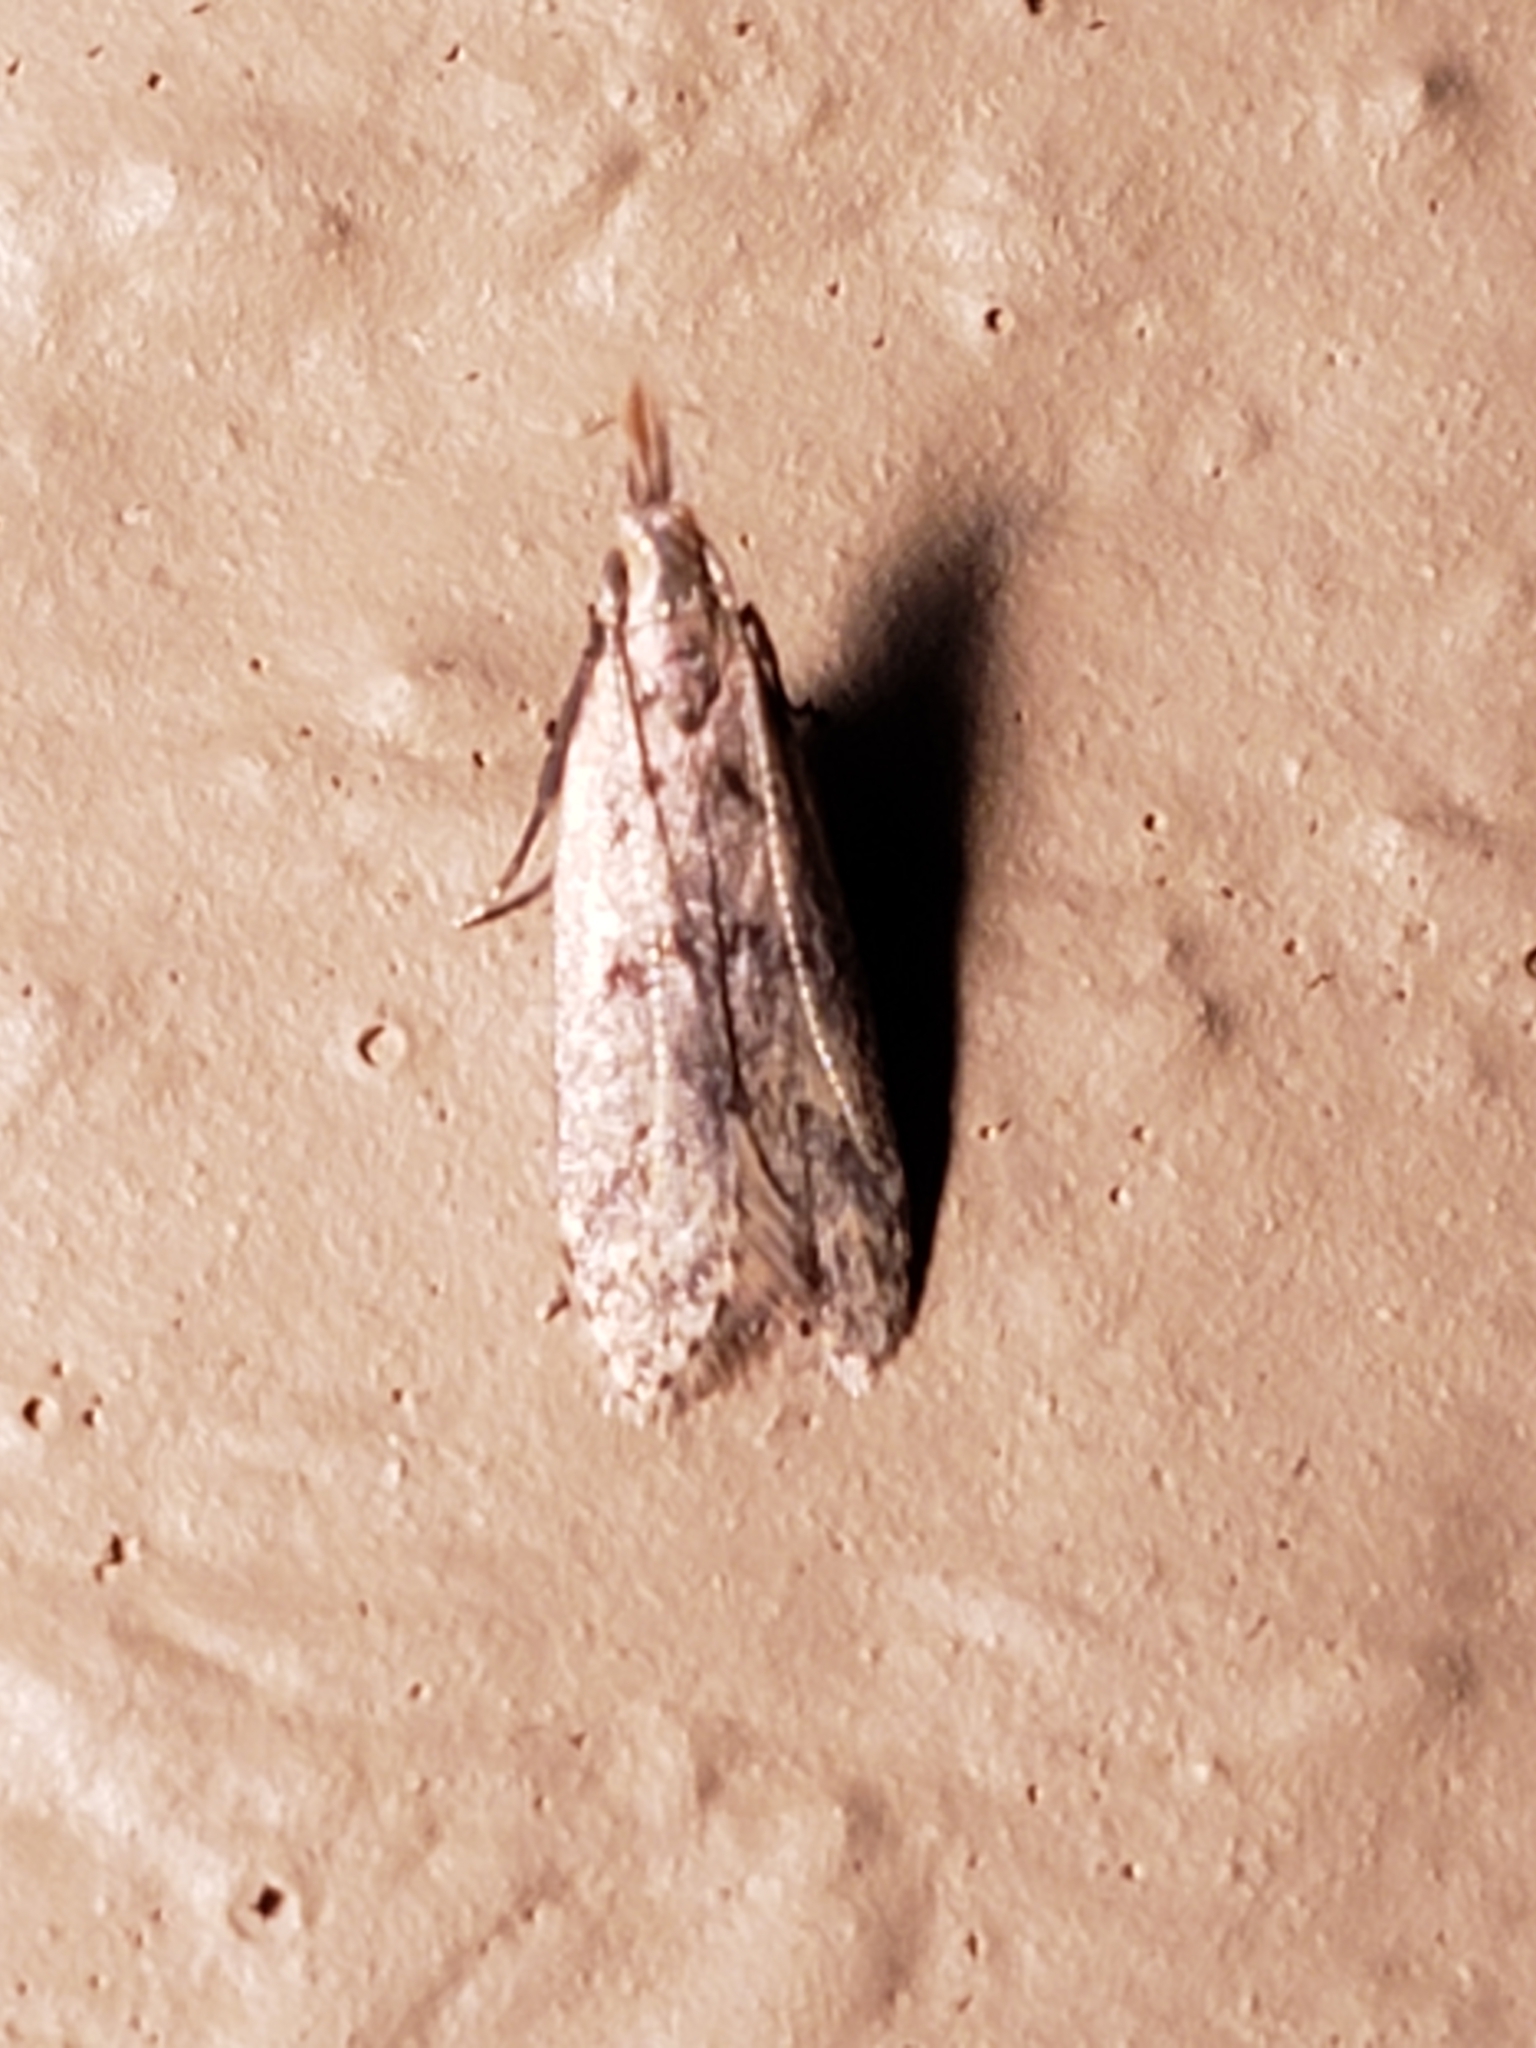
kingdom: Animalia
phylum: Arthropoda
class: Insecta
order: Lepidoptera
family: Gelechiidae
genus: Dichomeris
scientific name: Dichomeris punctipennella
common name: Many-spotted dichomeris moth
